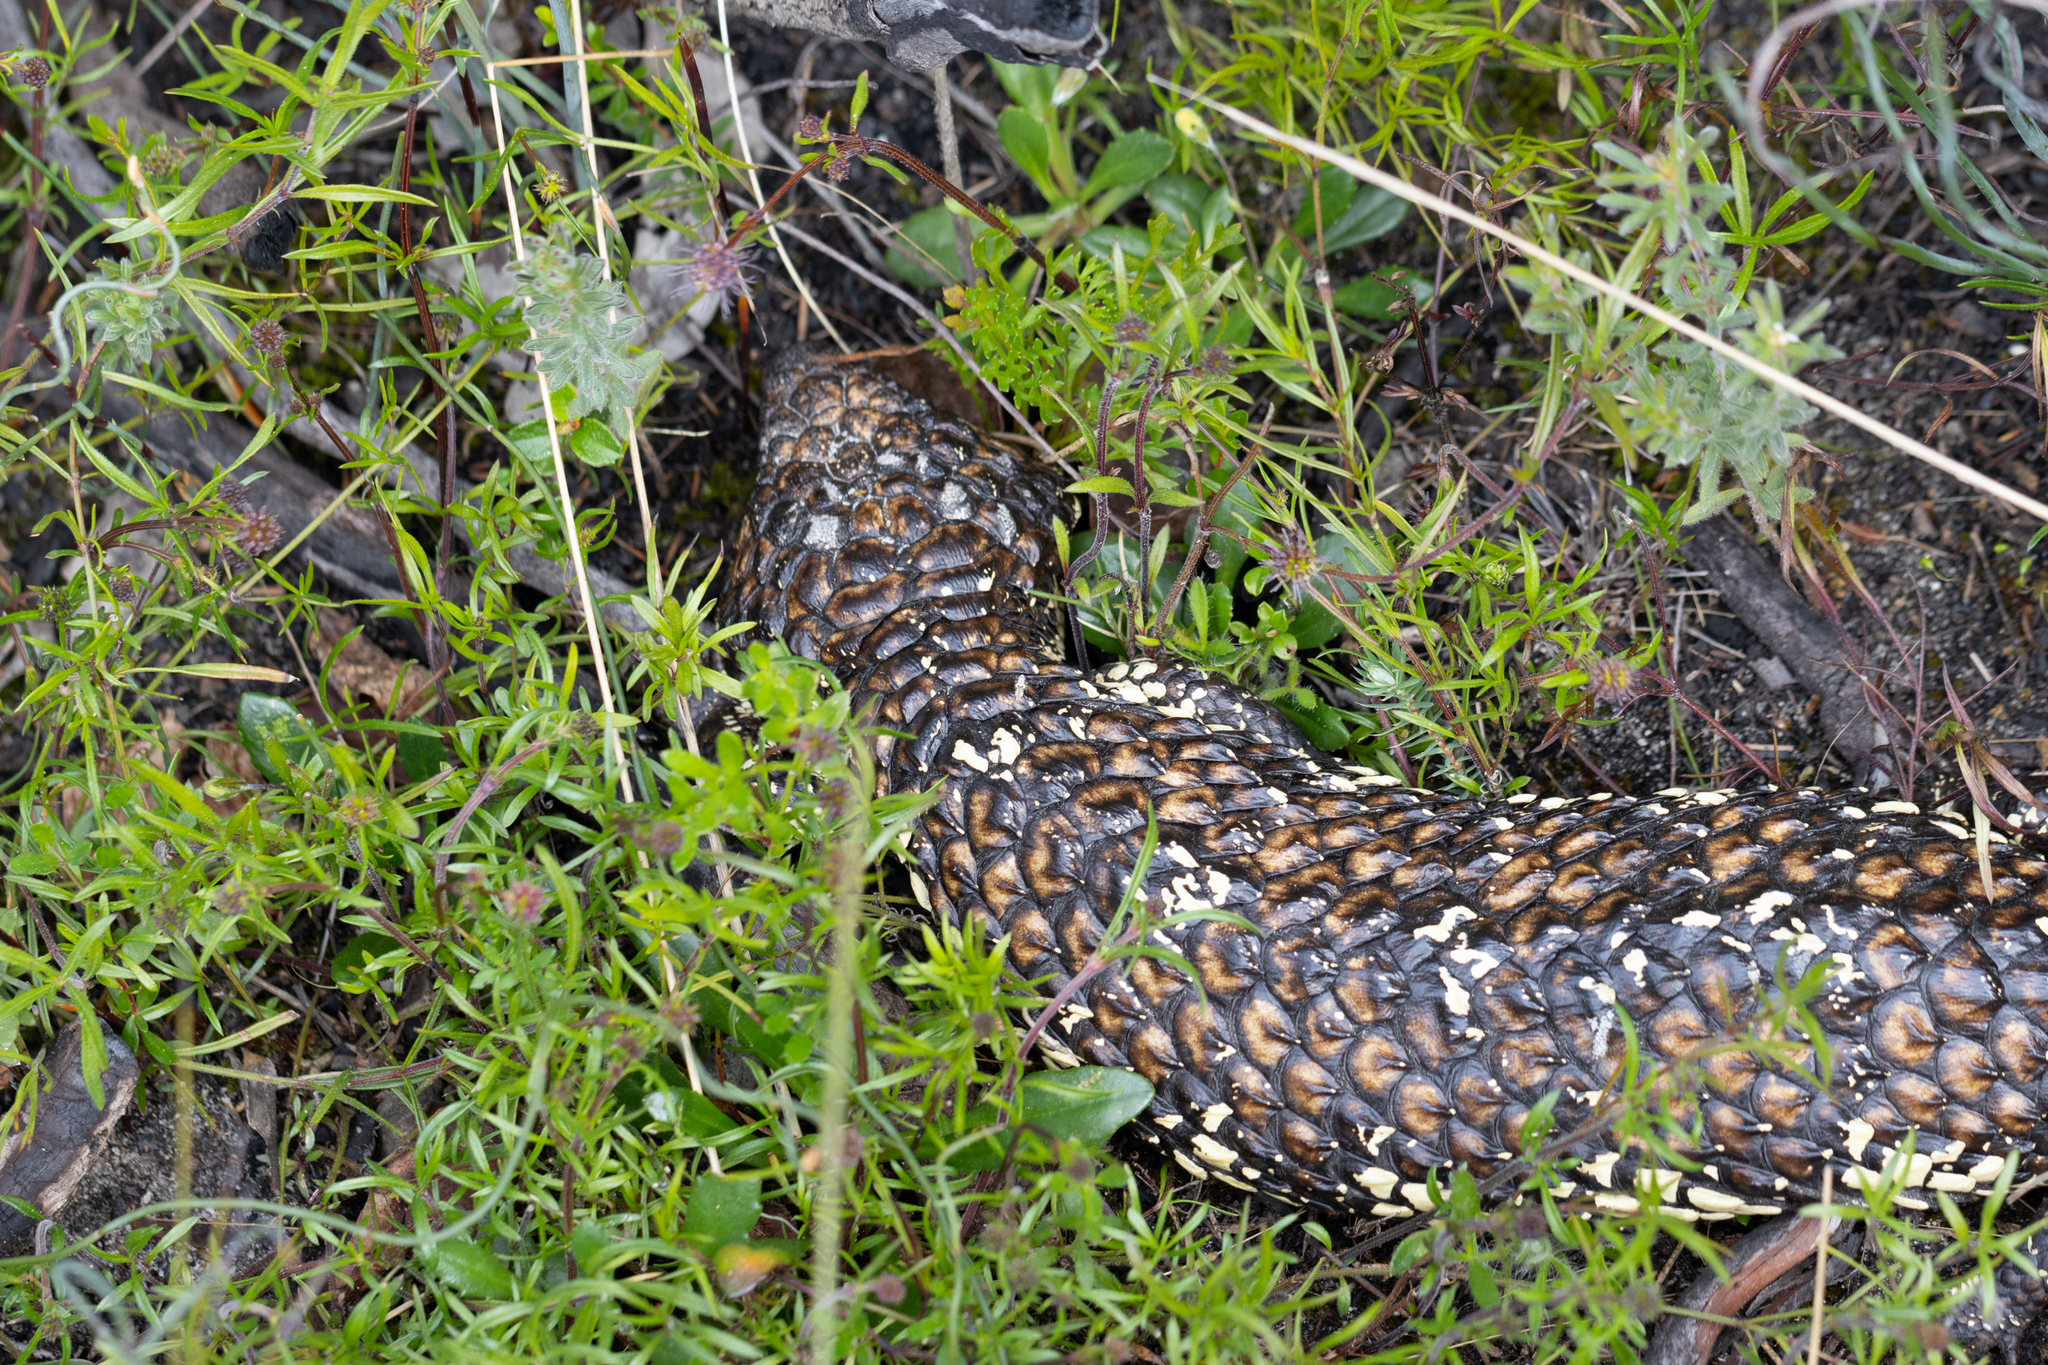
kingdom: Animalia
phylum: Chordata
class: Squamata
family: Scincidae
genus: Tiliqua
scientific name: Tiliqua rugosa
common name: Pinecone lizard
